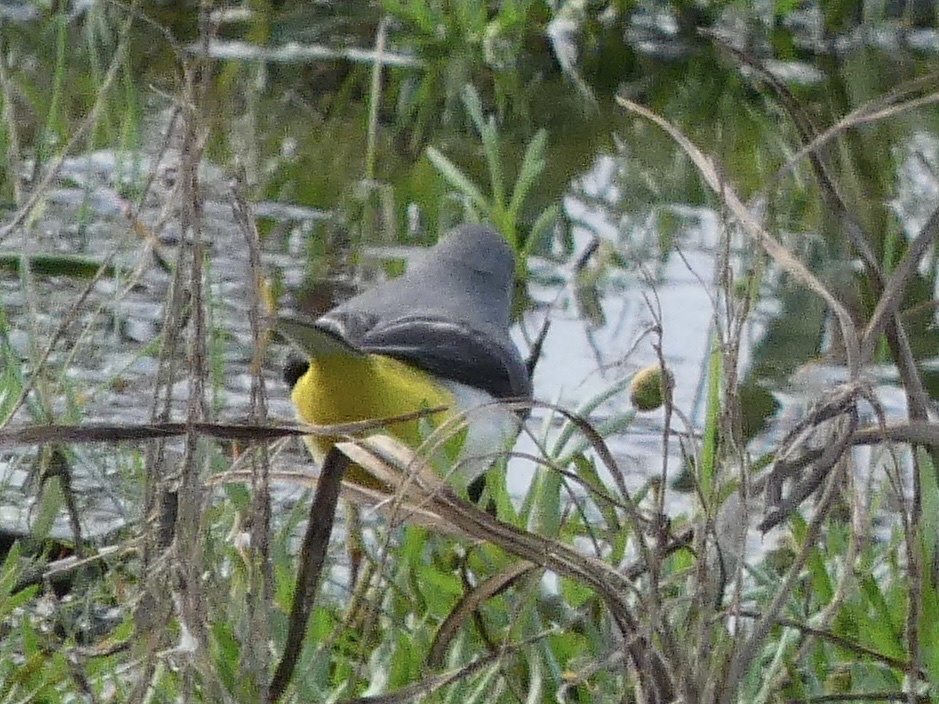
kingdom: Animalia
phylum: Chordata
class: Aves
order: Passeriformes
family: Motacillidae
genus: Motacilla
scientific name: Motacilla cinerea
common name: Grey wagtail
